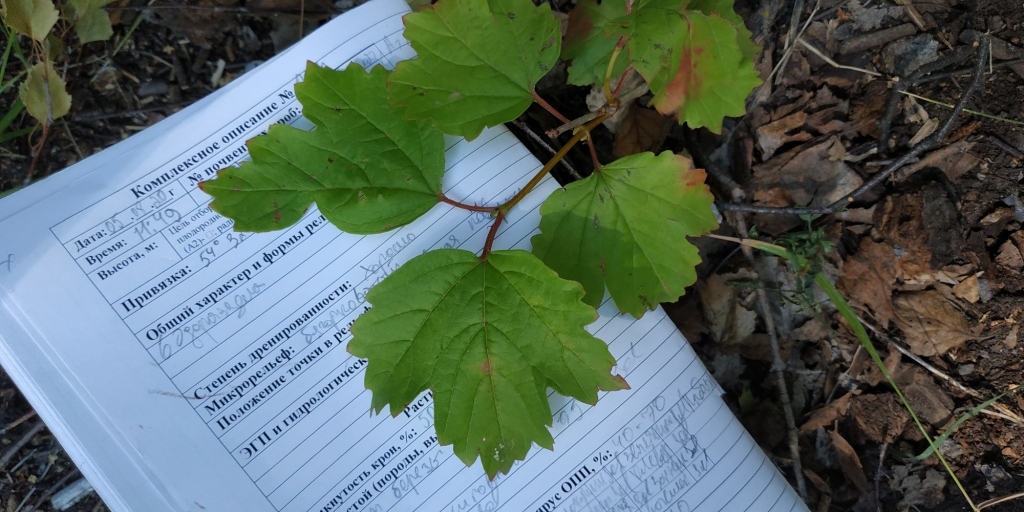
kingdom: Plantae
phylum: Tracheophyta
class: Magnoliopsida
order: Dipsacales
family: Viburnaceae
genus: Viburnum
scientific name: Viburnum opulus
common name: Guelder-rose
